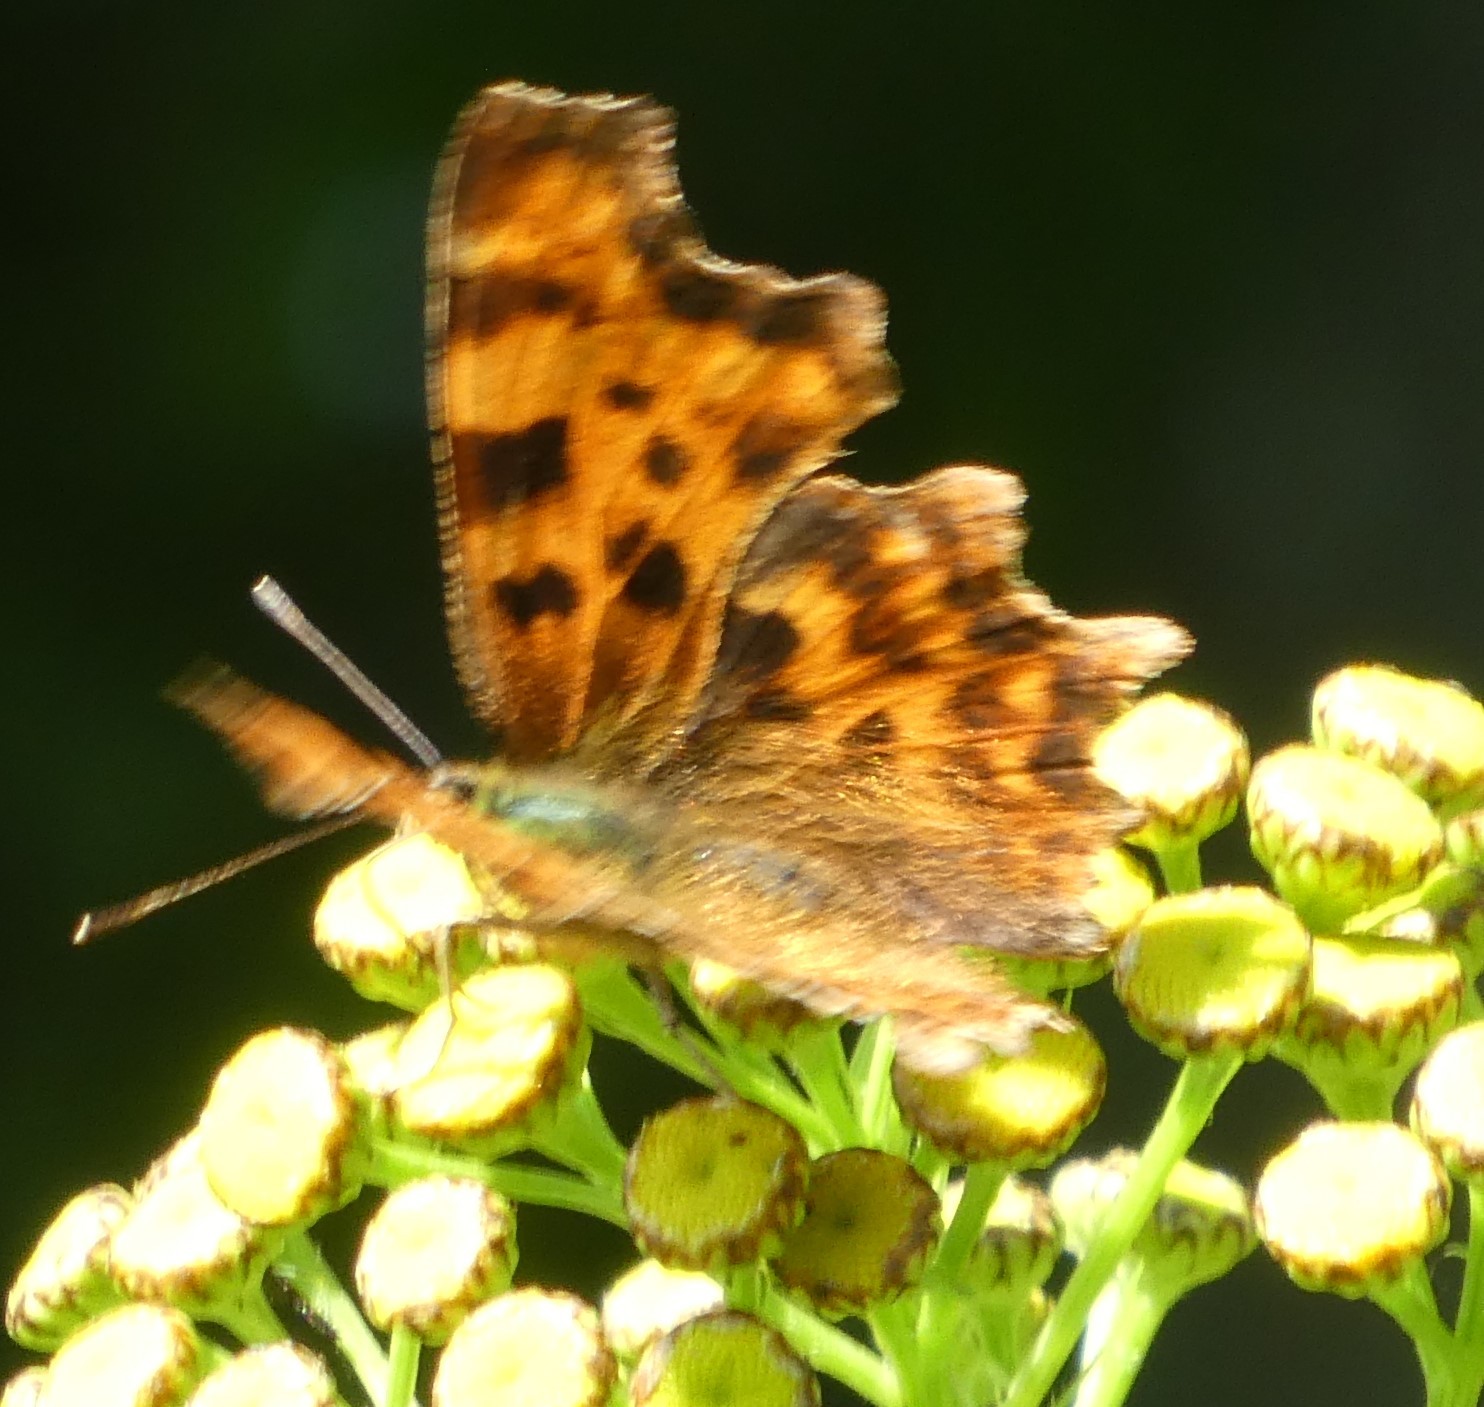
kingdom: Animalia
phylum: Arthropoda
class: Insecta
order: Lepidoptera
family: Nymphalidae
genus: Polygonia
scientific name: Polygonia c-album
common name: Comma
